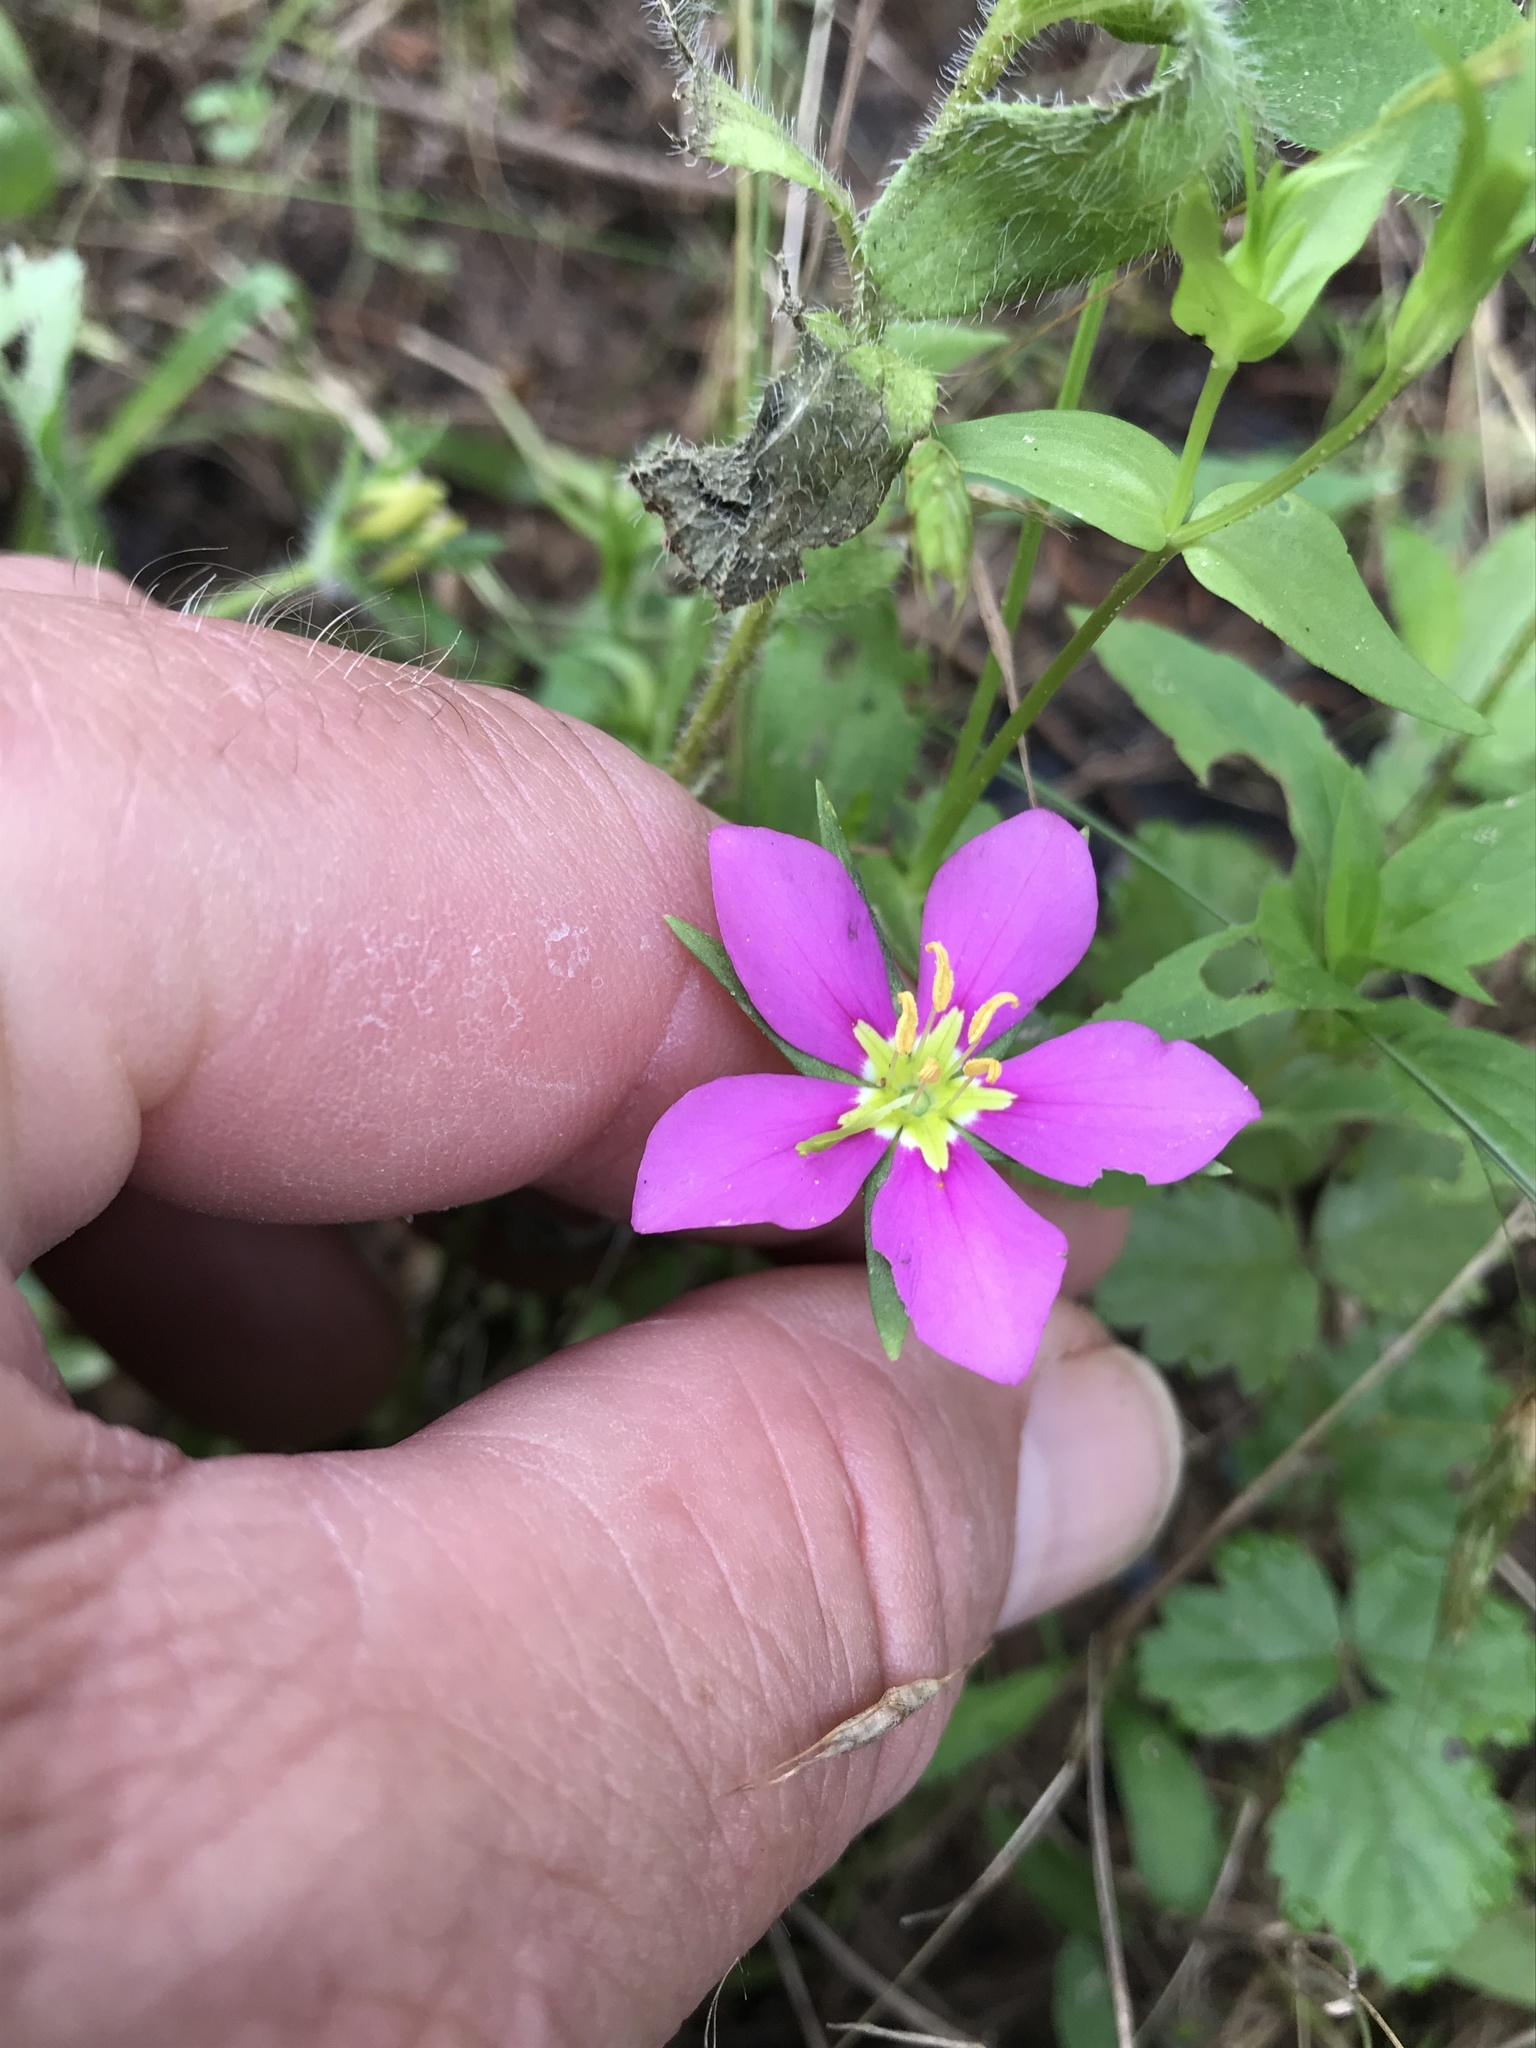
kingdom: Plantae
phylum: Tracheophyta
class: Magnoliopsida
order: Gentianales
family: Gentianaceae
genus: Sabatia
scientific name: Sabatia campestris
